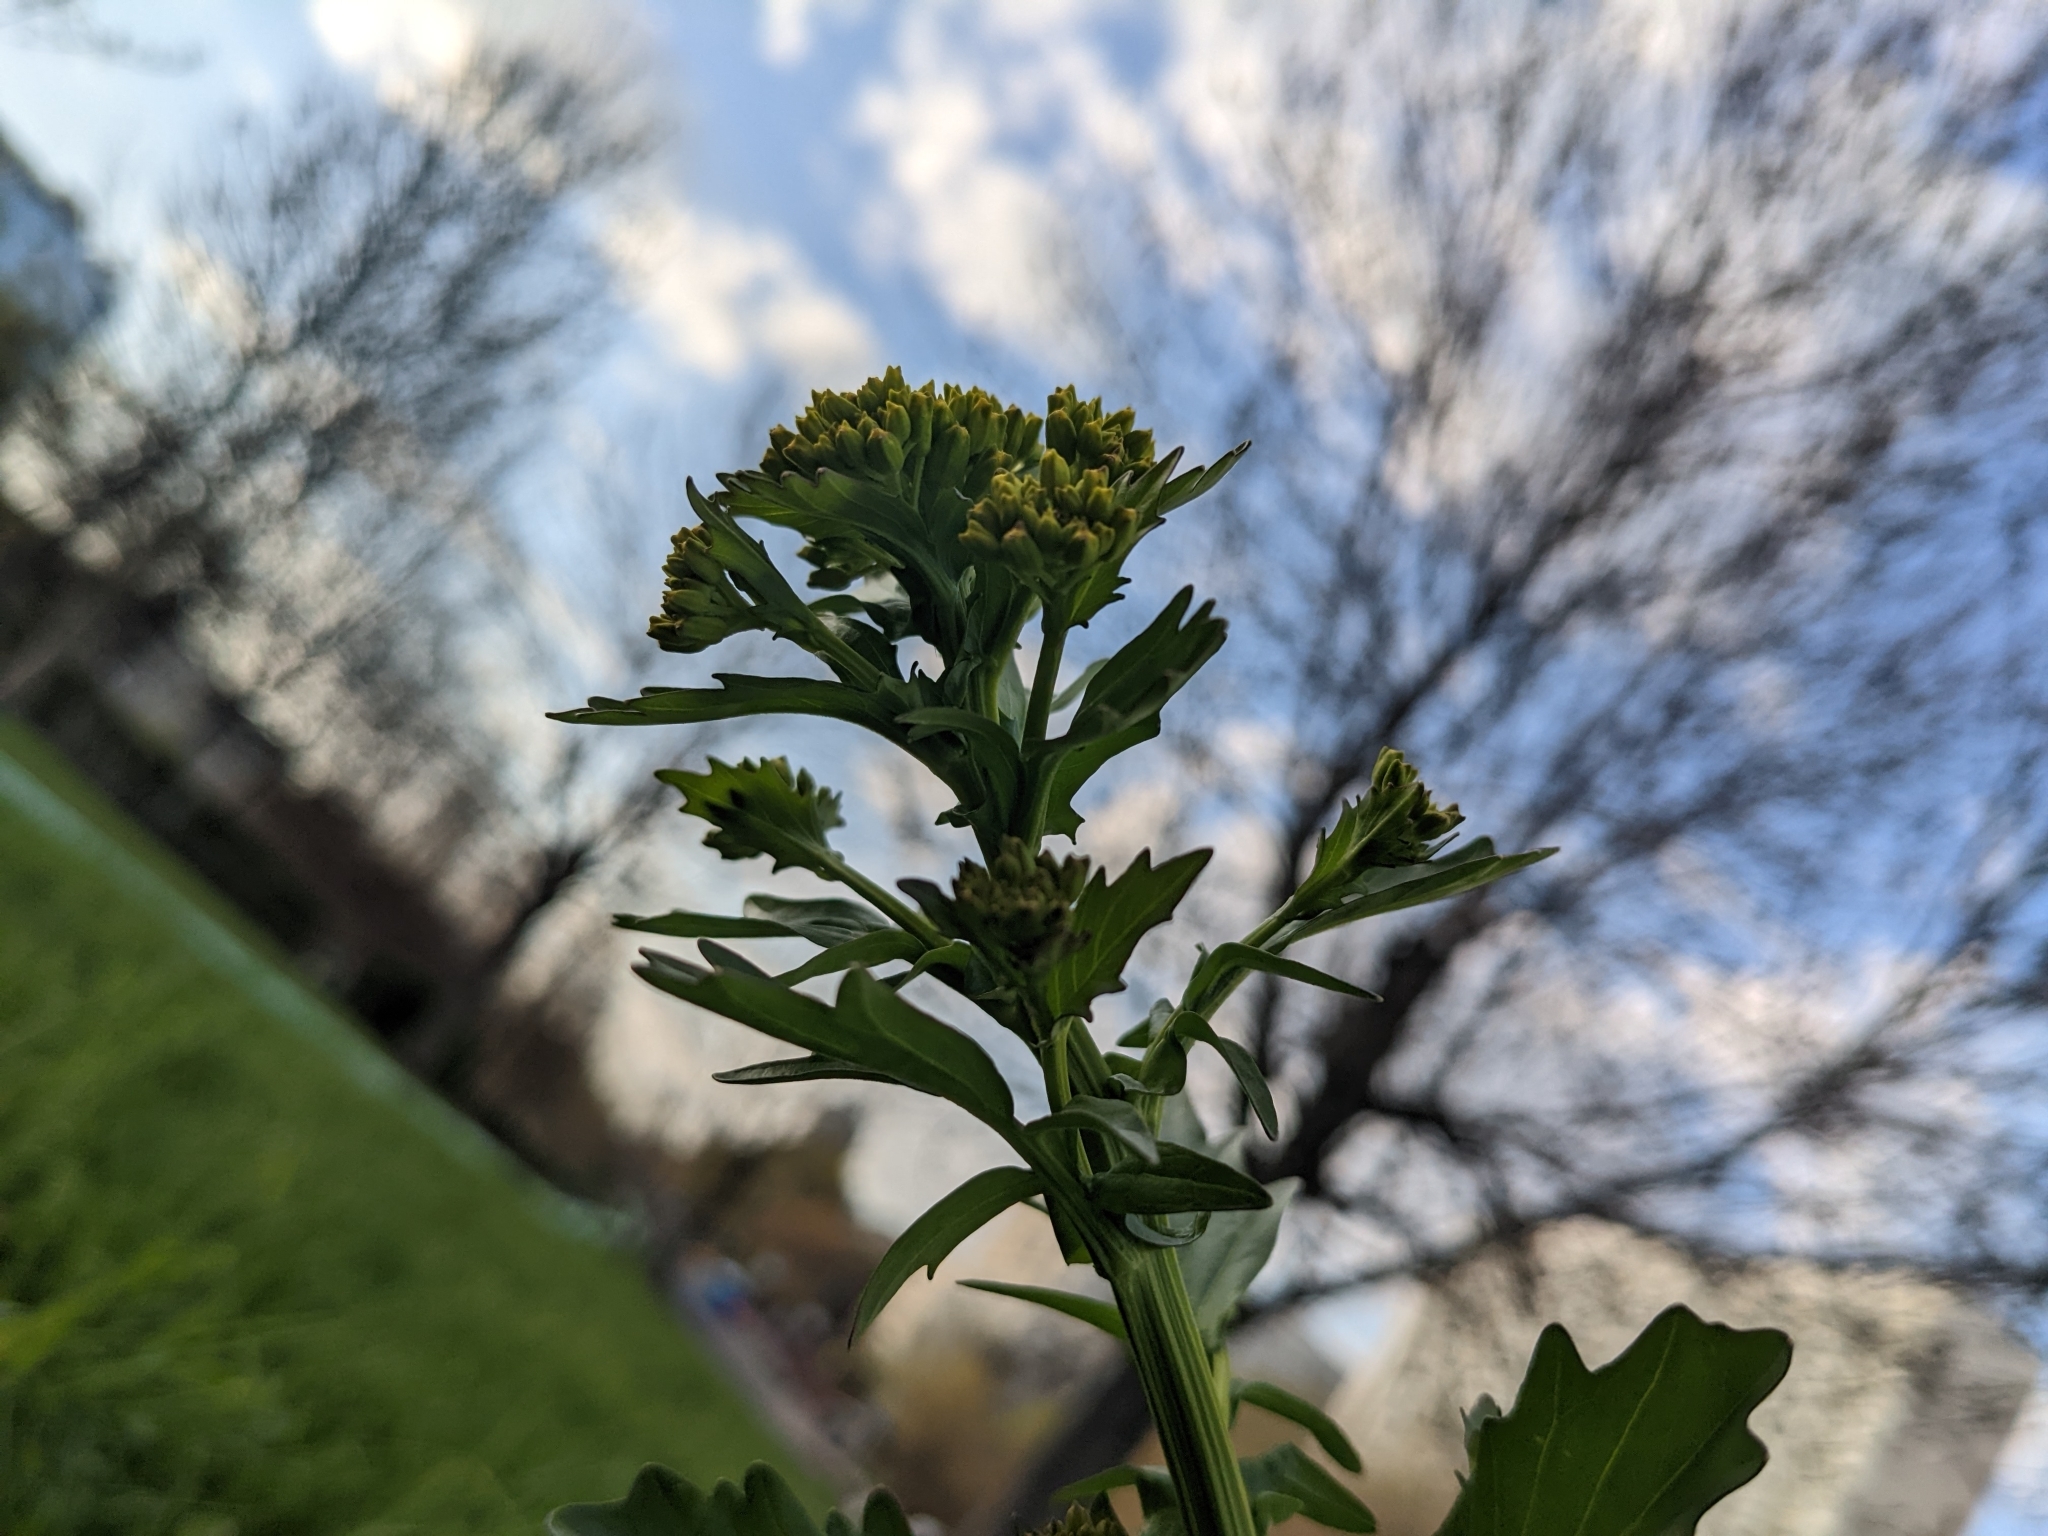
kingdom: Plantae
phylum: Tracheophyta
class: Magnoliopsida
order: Brassicales
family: Brassicaceae
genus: Barbarea
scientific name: Barbarea vulgaris
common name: Cressy-greens
